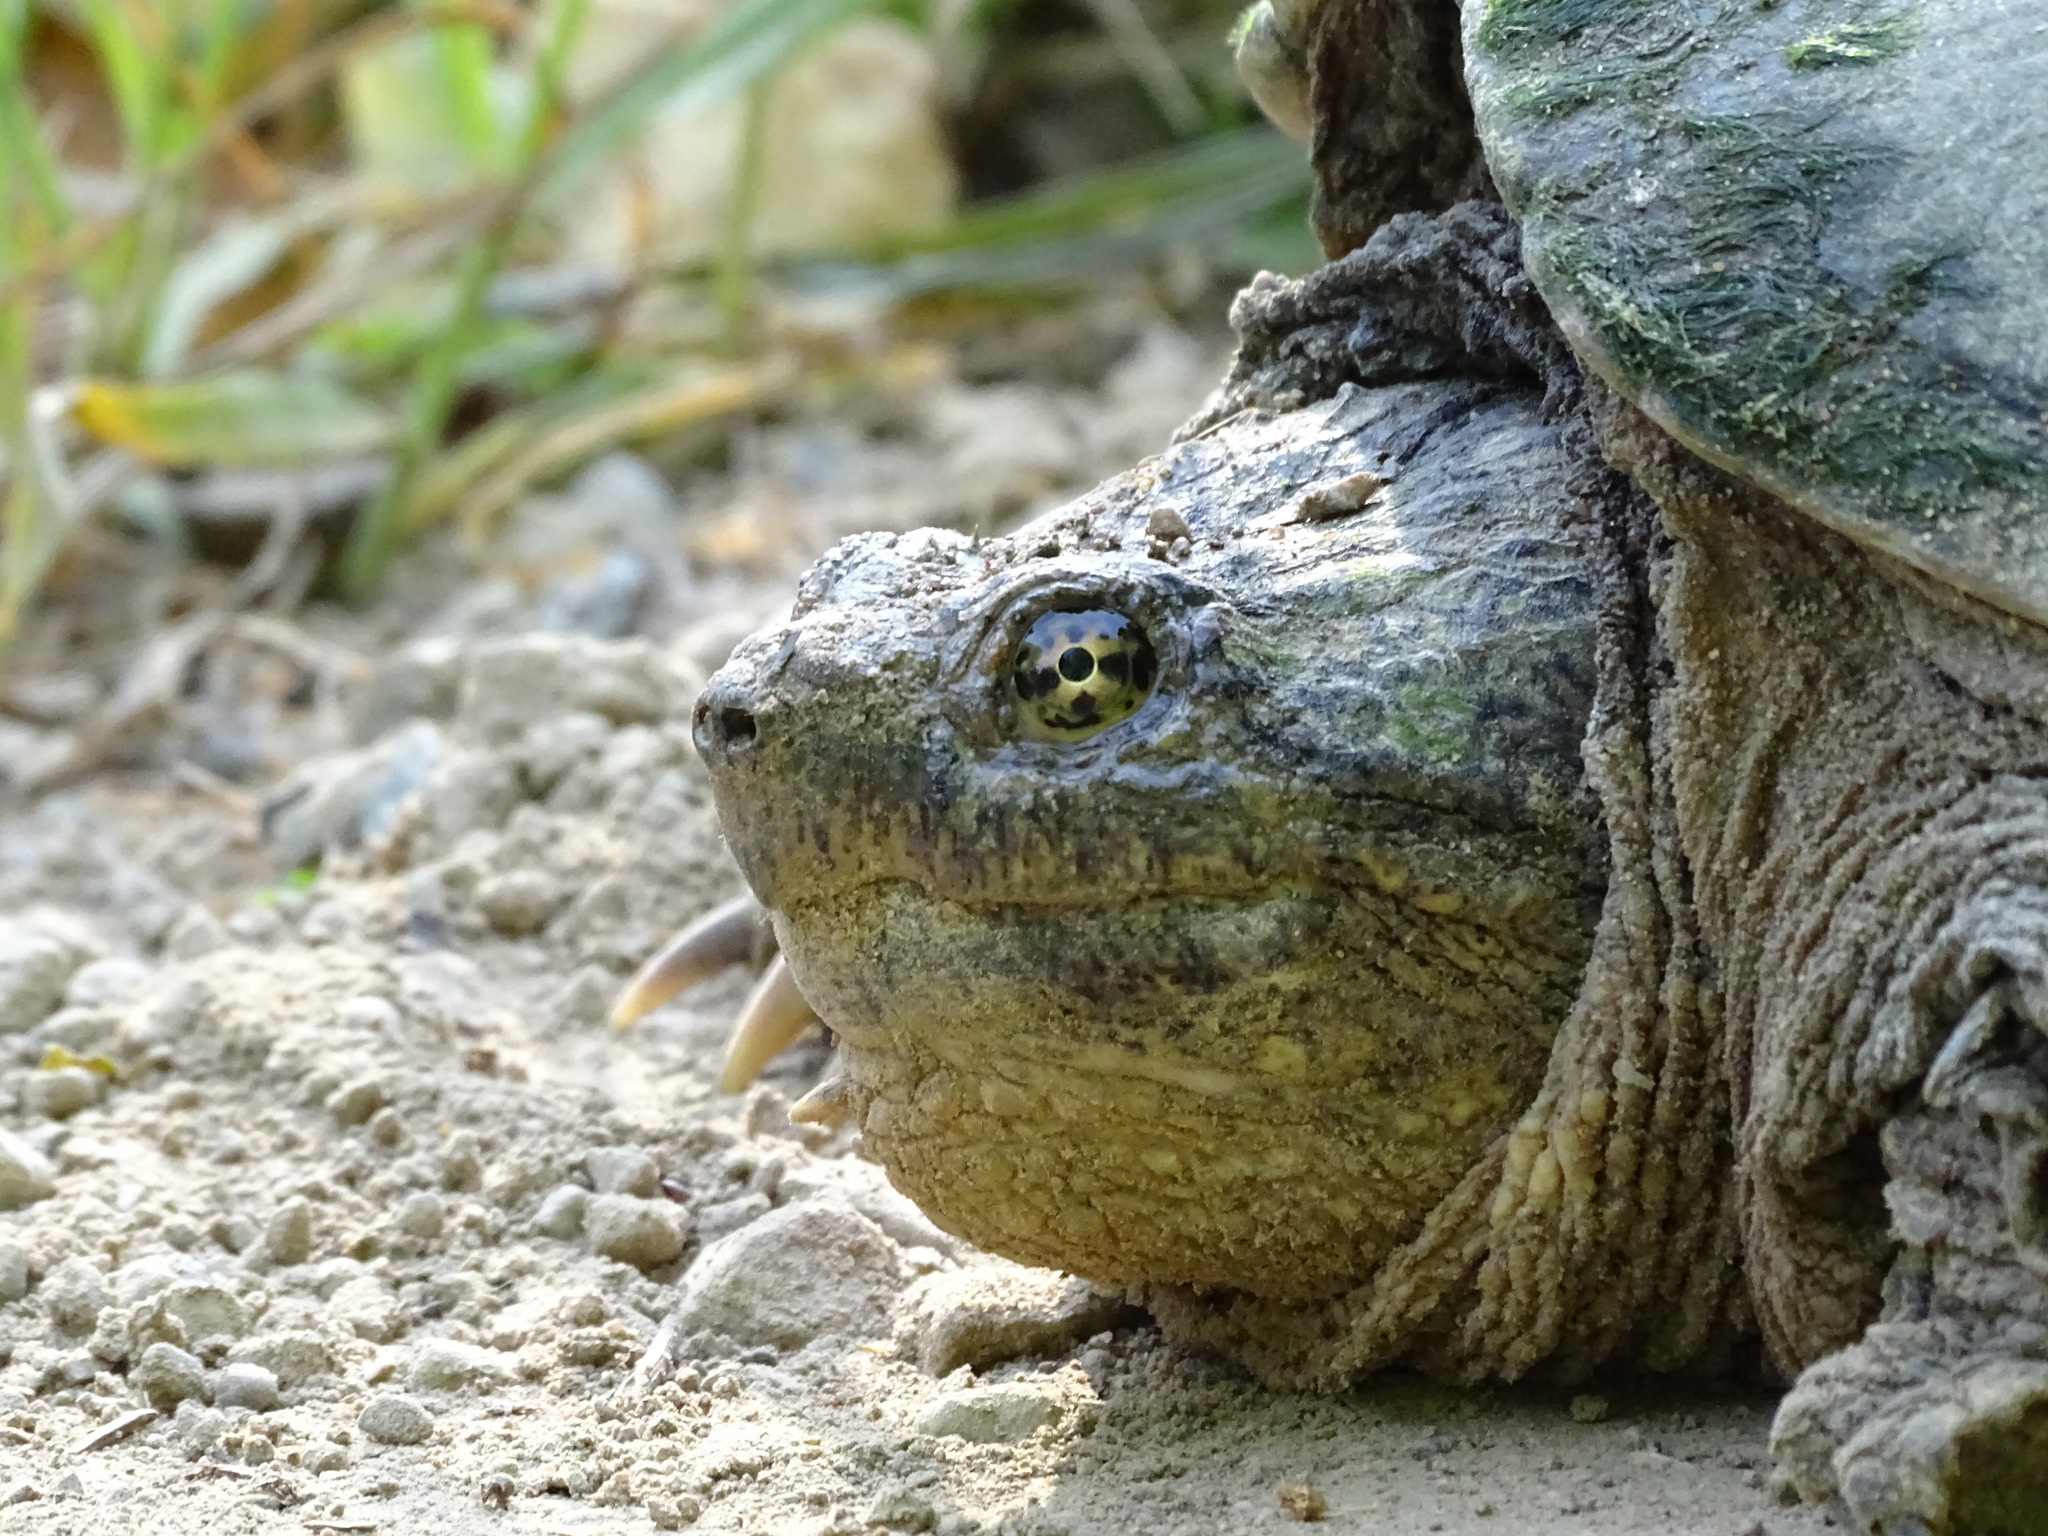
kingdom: Animalia
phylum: Chordata
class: Testudines
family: Chelydridae
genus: Chelydra
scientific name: Chelydra serpentina
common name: Common snapping turtle
